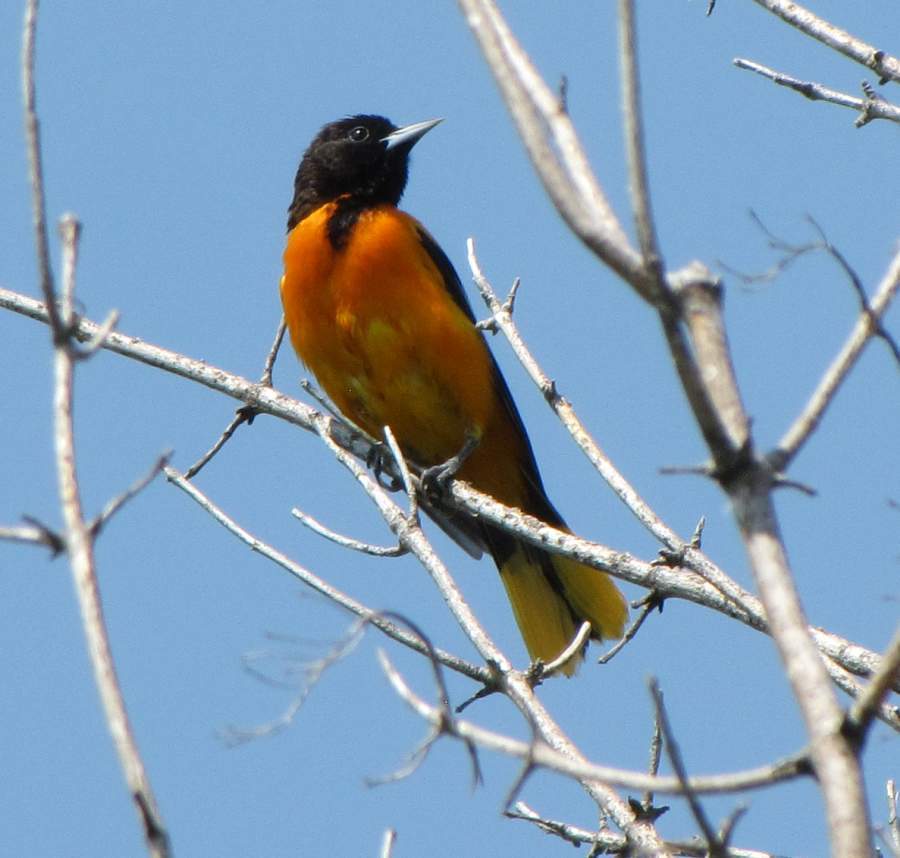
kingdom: Animalia
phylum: Chordata
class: Aves
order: Passeriformes
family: Icteridae
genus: Icterus
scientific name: Icterus galbula
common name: Baltimore oriole
